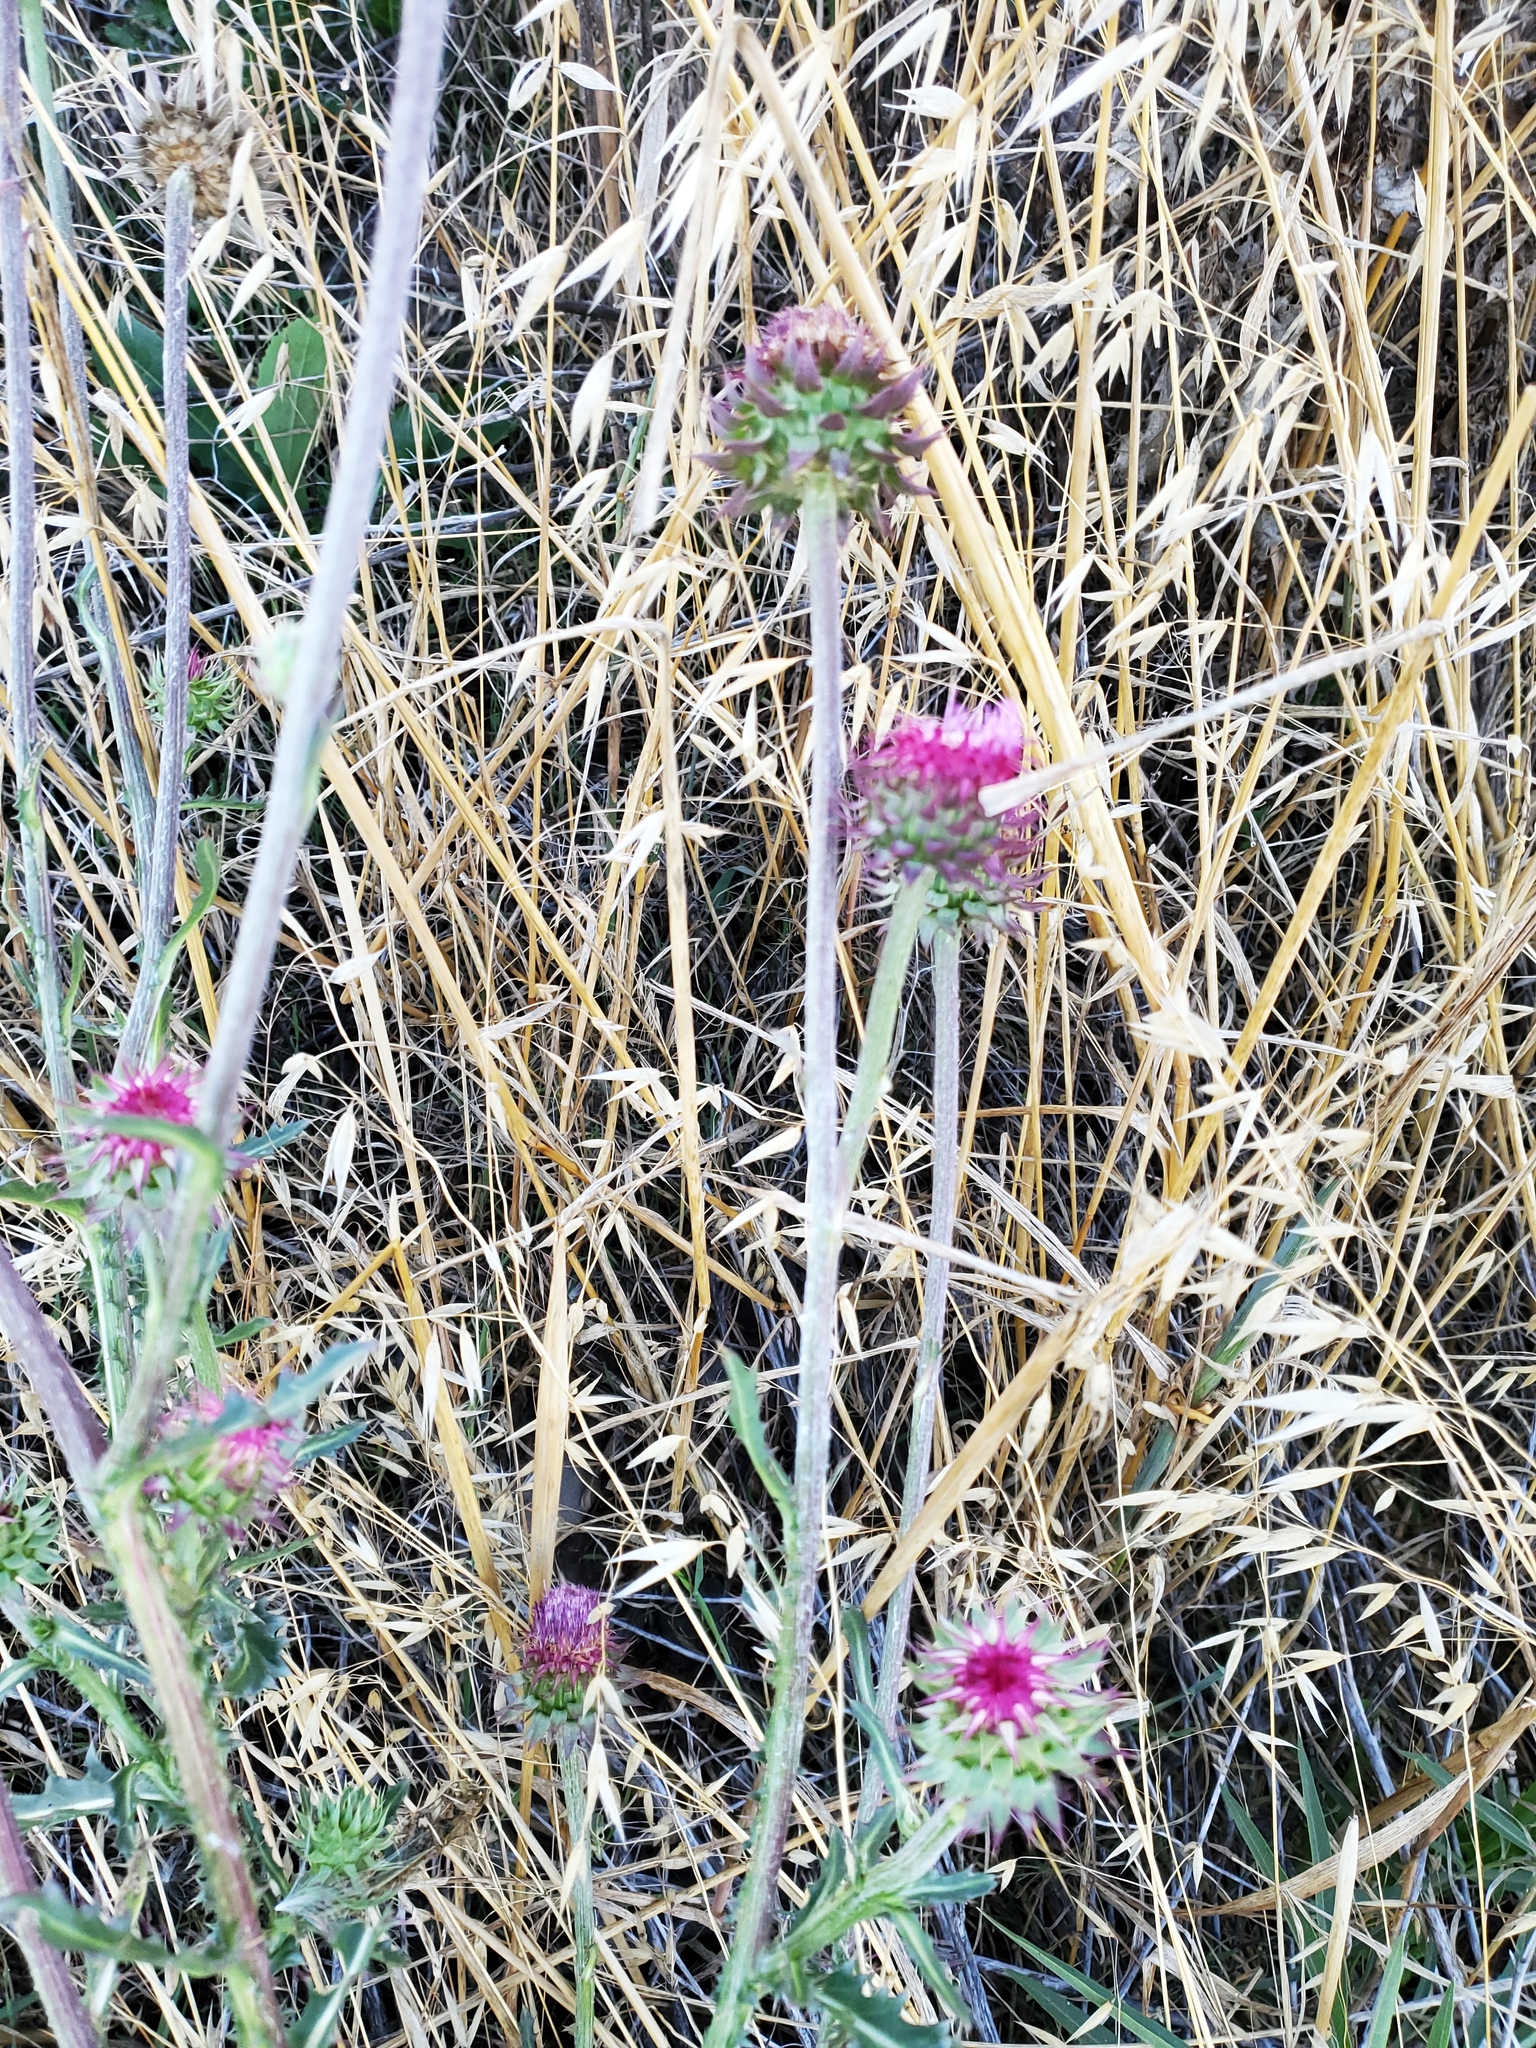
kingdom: Plantae
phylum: Tracheophyta
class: Magnoliopsida
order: Asterales
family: Asteraceae
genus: Carduus
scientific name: Carduus nutans
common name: Musk thistle
